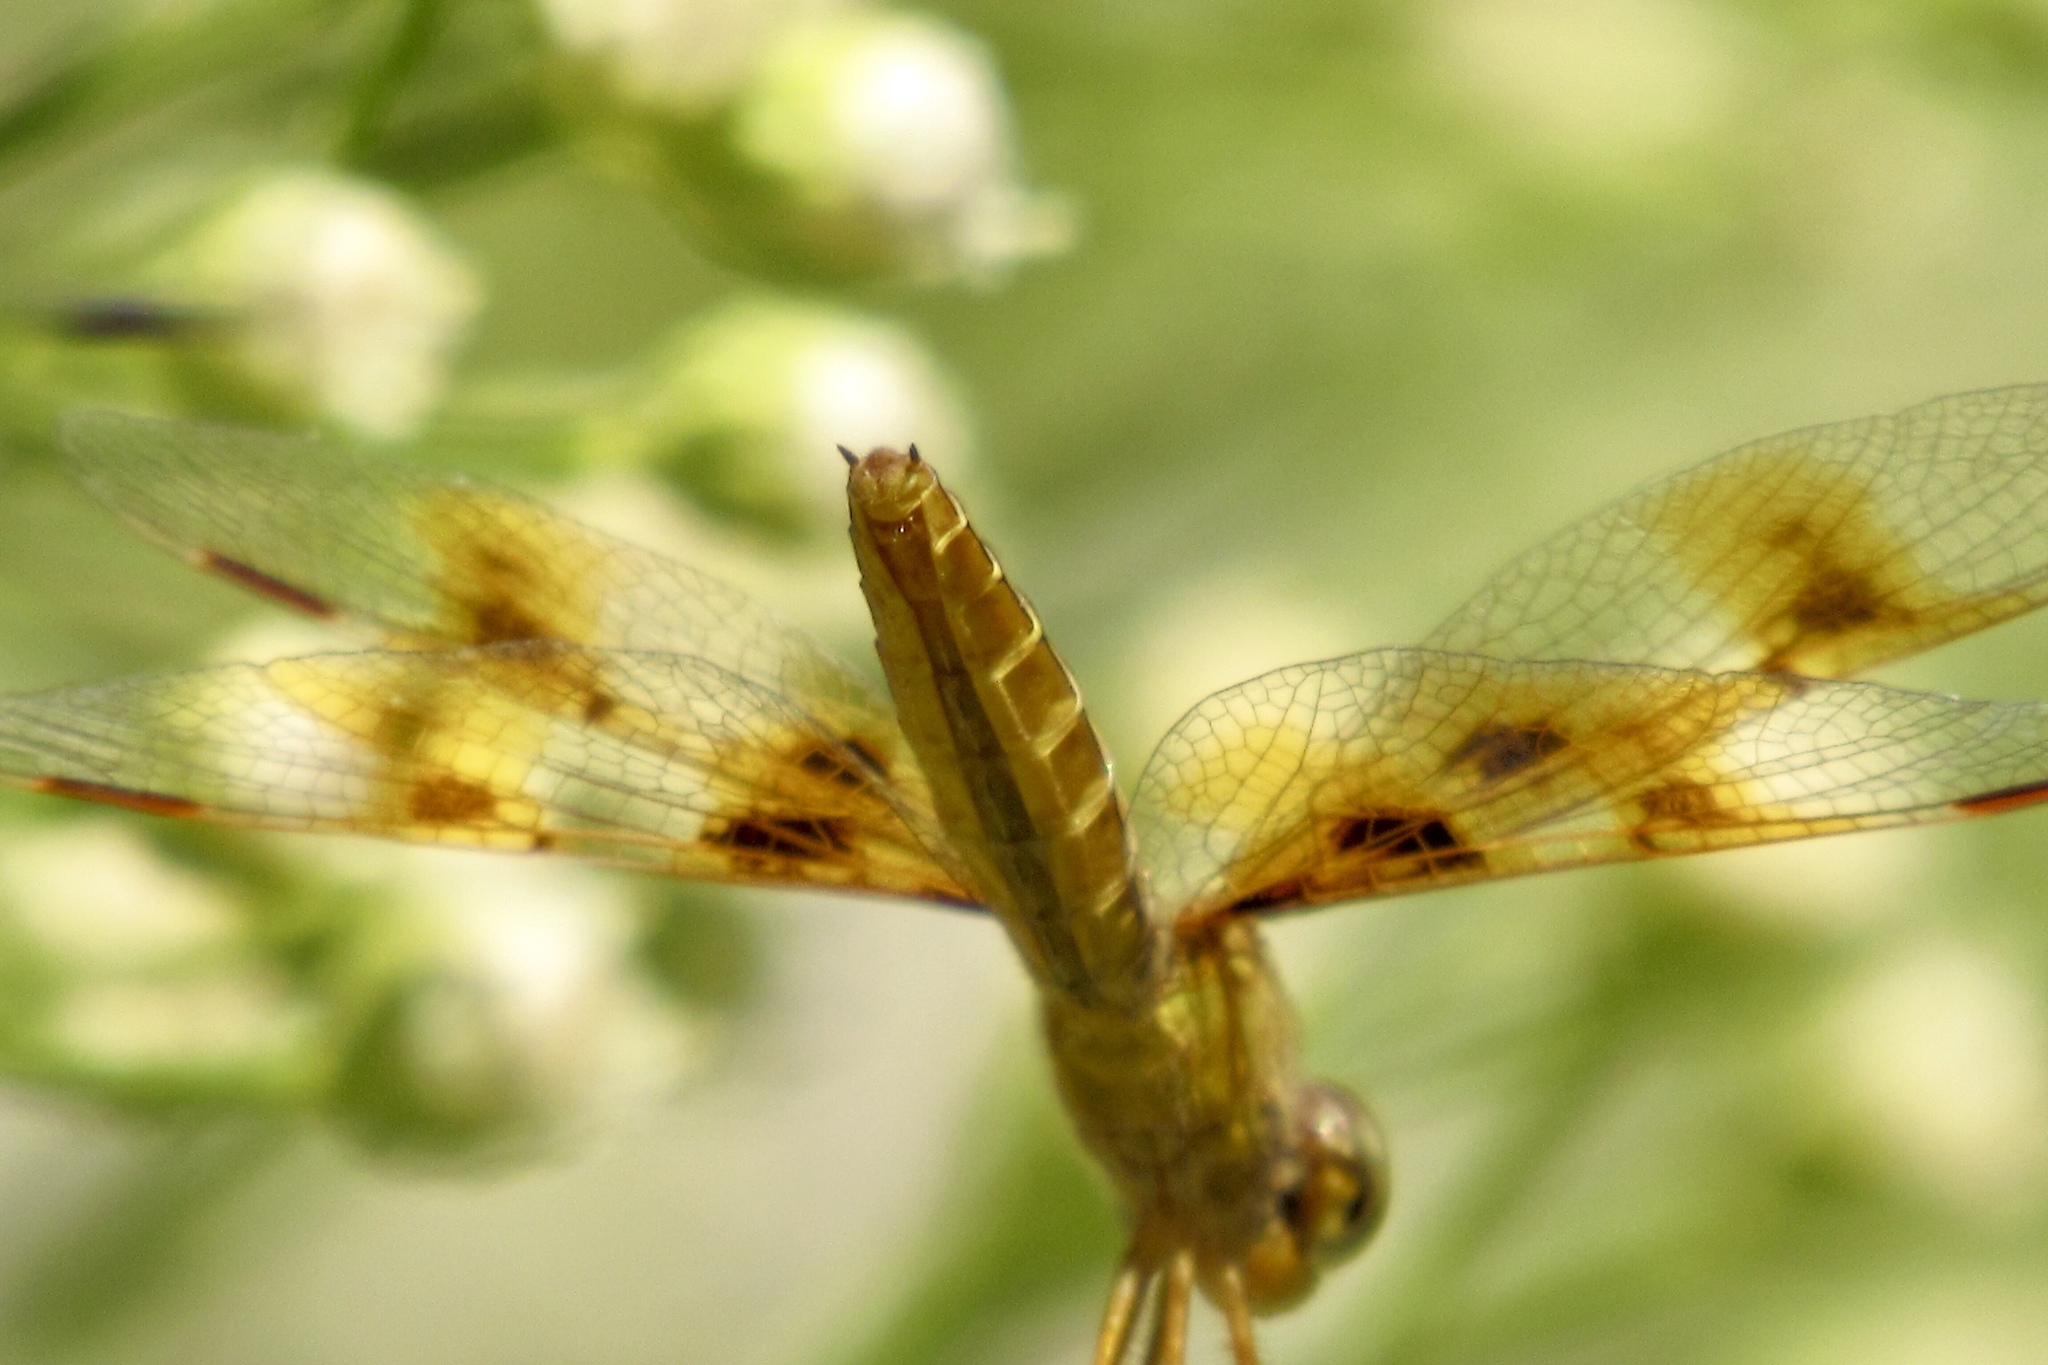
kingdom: Animalia
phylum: Arthropoda
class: Insecta
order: Odonata
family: Libellulidae
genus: Perithemis
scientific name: Perithemis intensa
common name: Mexican amberwing
